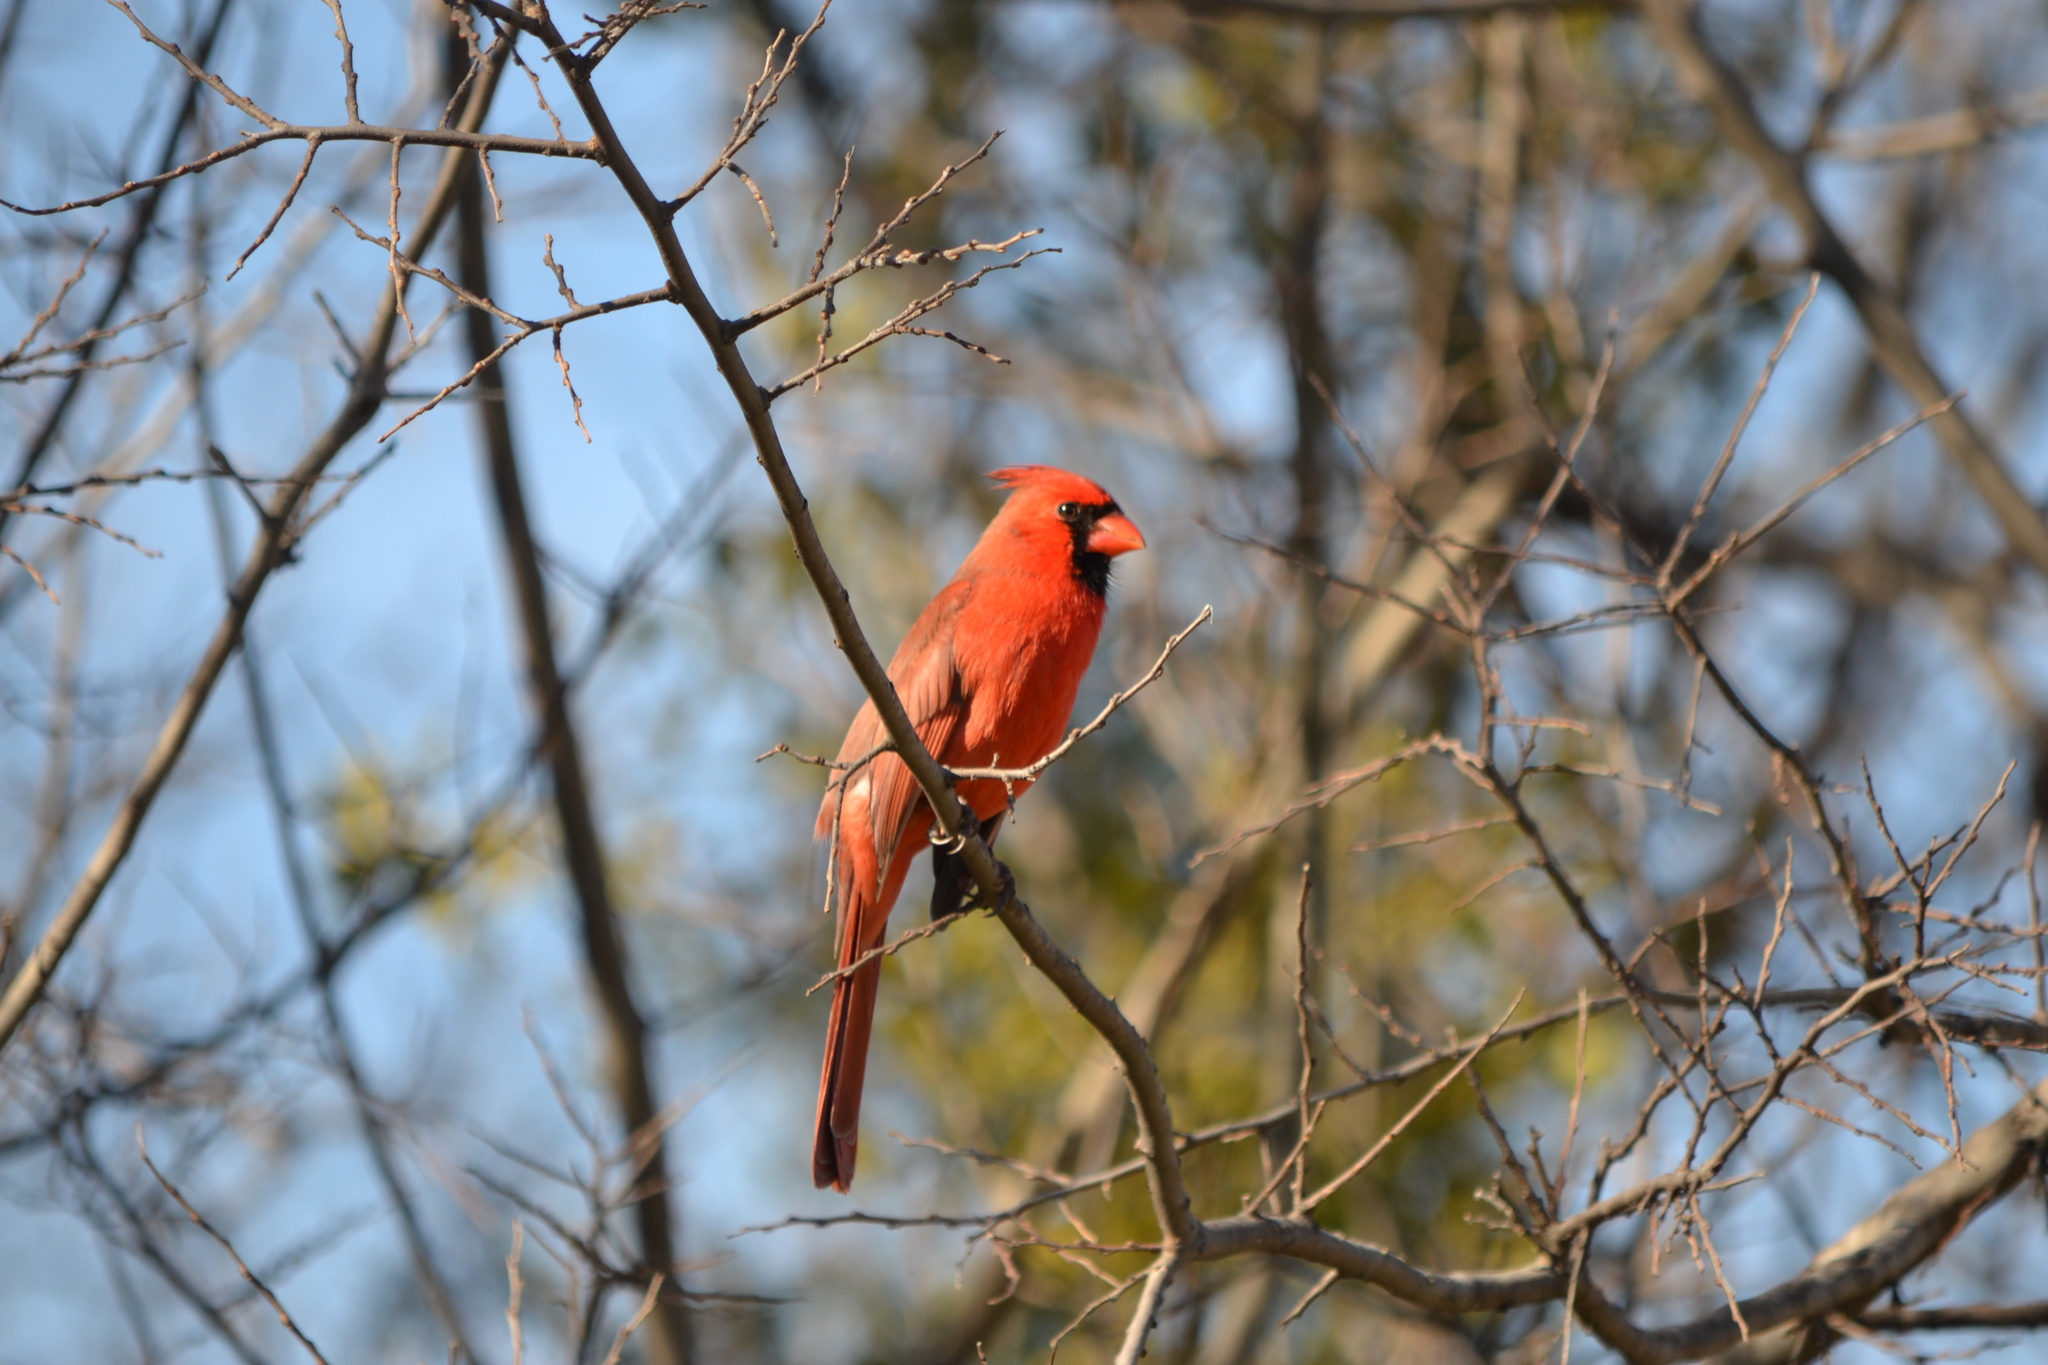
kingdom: Animalia
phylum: Chordata
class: Aves
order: Passeriformes
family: Cardinalidae
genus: Cardinalis
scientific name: Cardinalis cardinalis
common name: Northern cardinal
